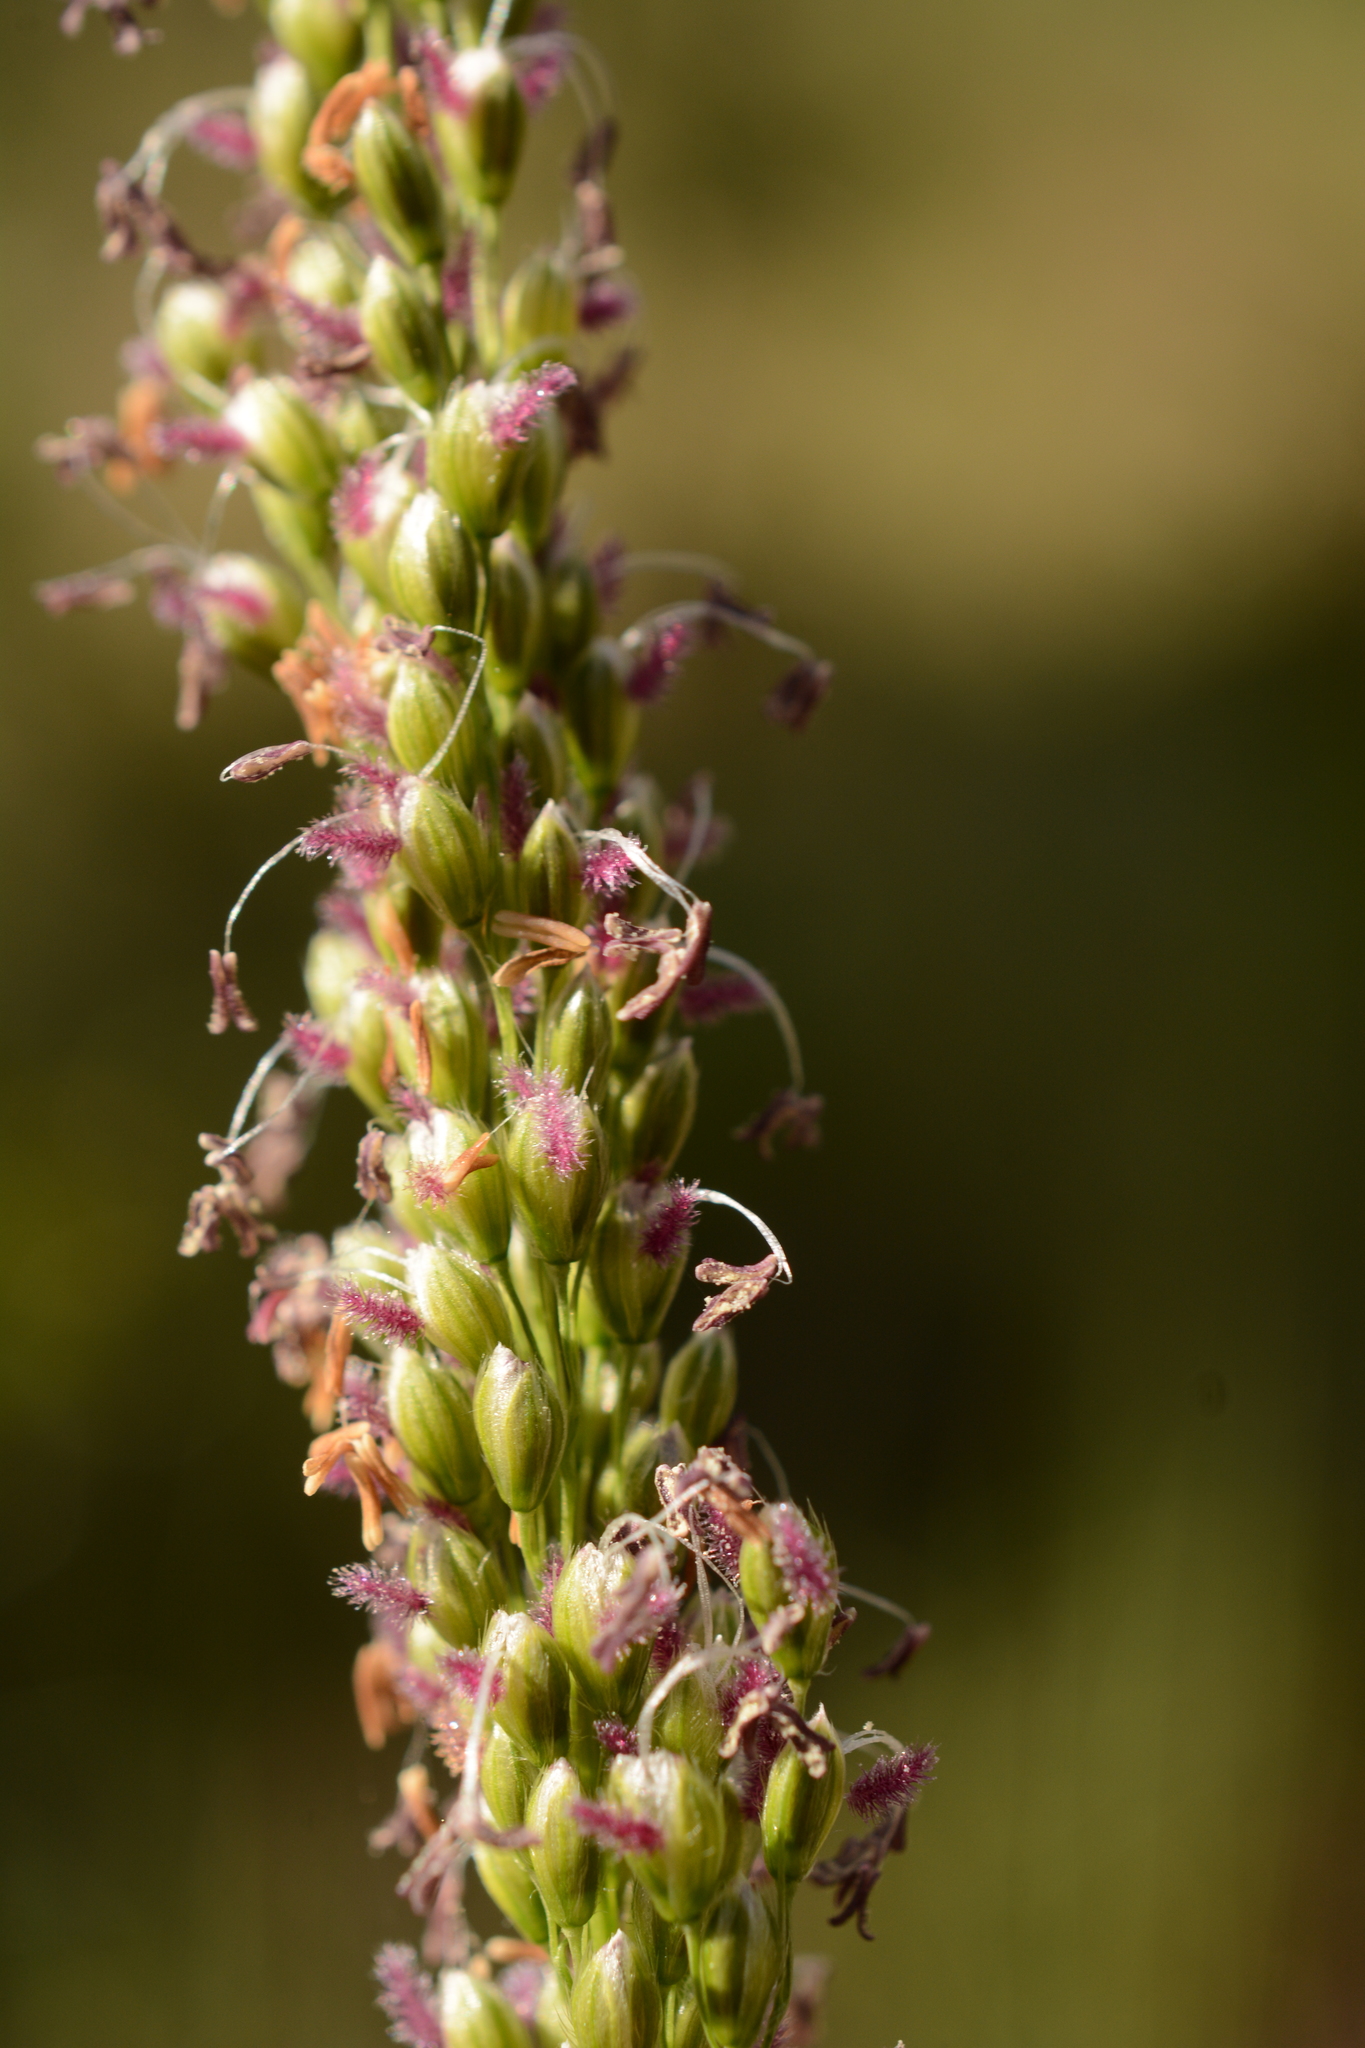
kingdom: Plantae
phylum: Tracheophyta
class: Liliopsida
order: Poales
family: Poaceae
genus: Anthenantia
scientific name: Anthenantia villosa
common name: Green silkyscale
